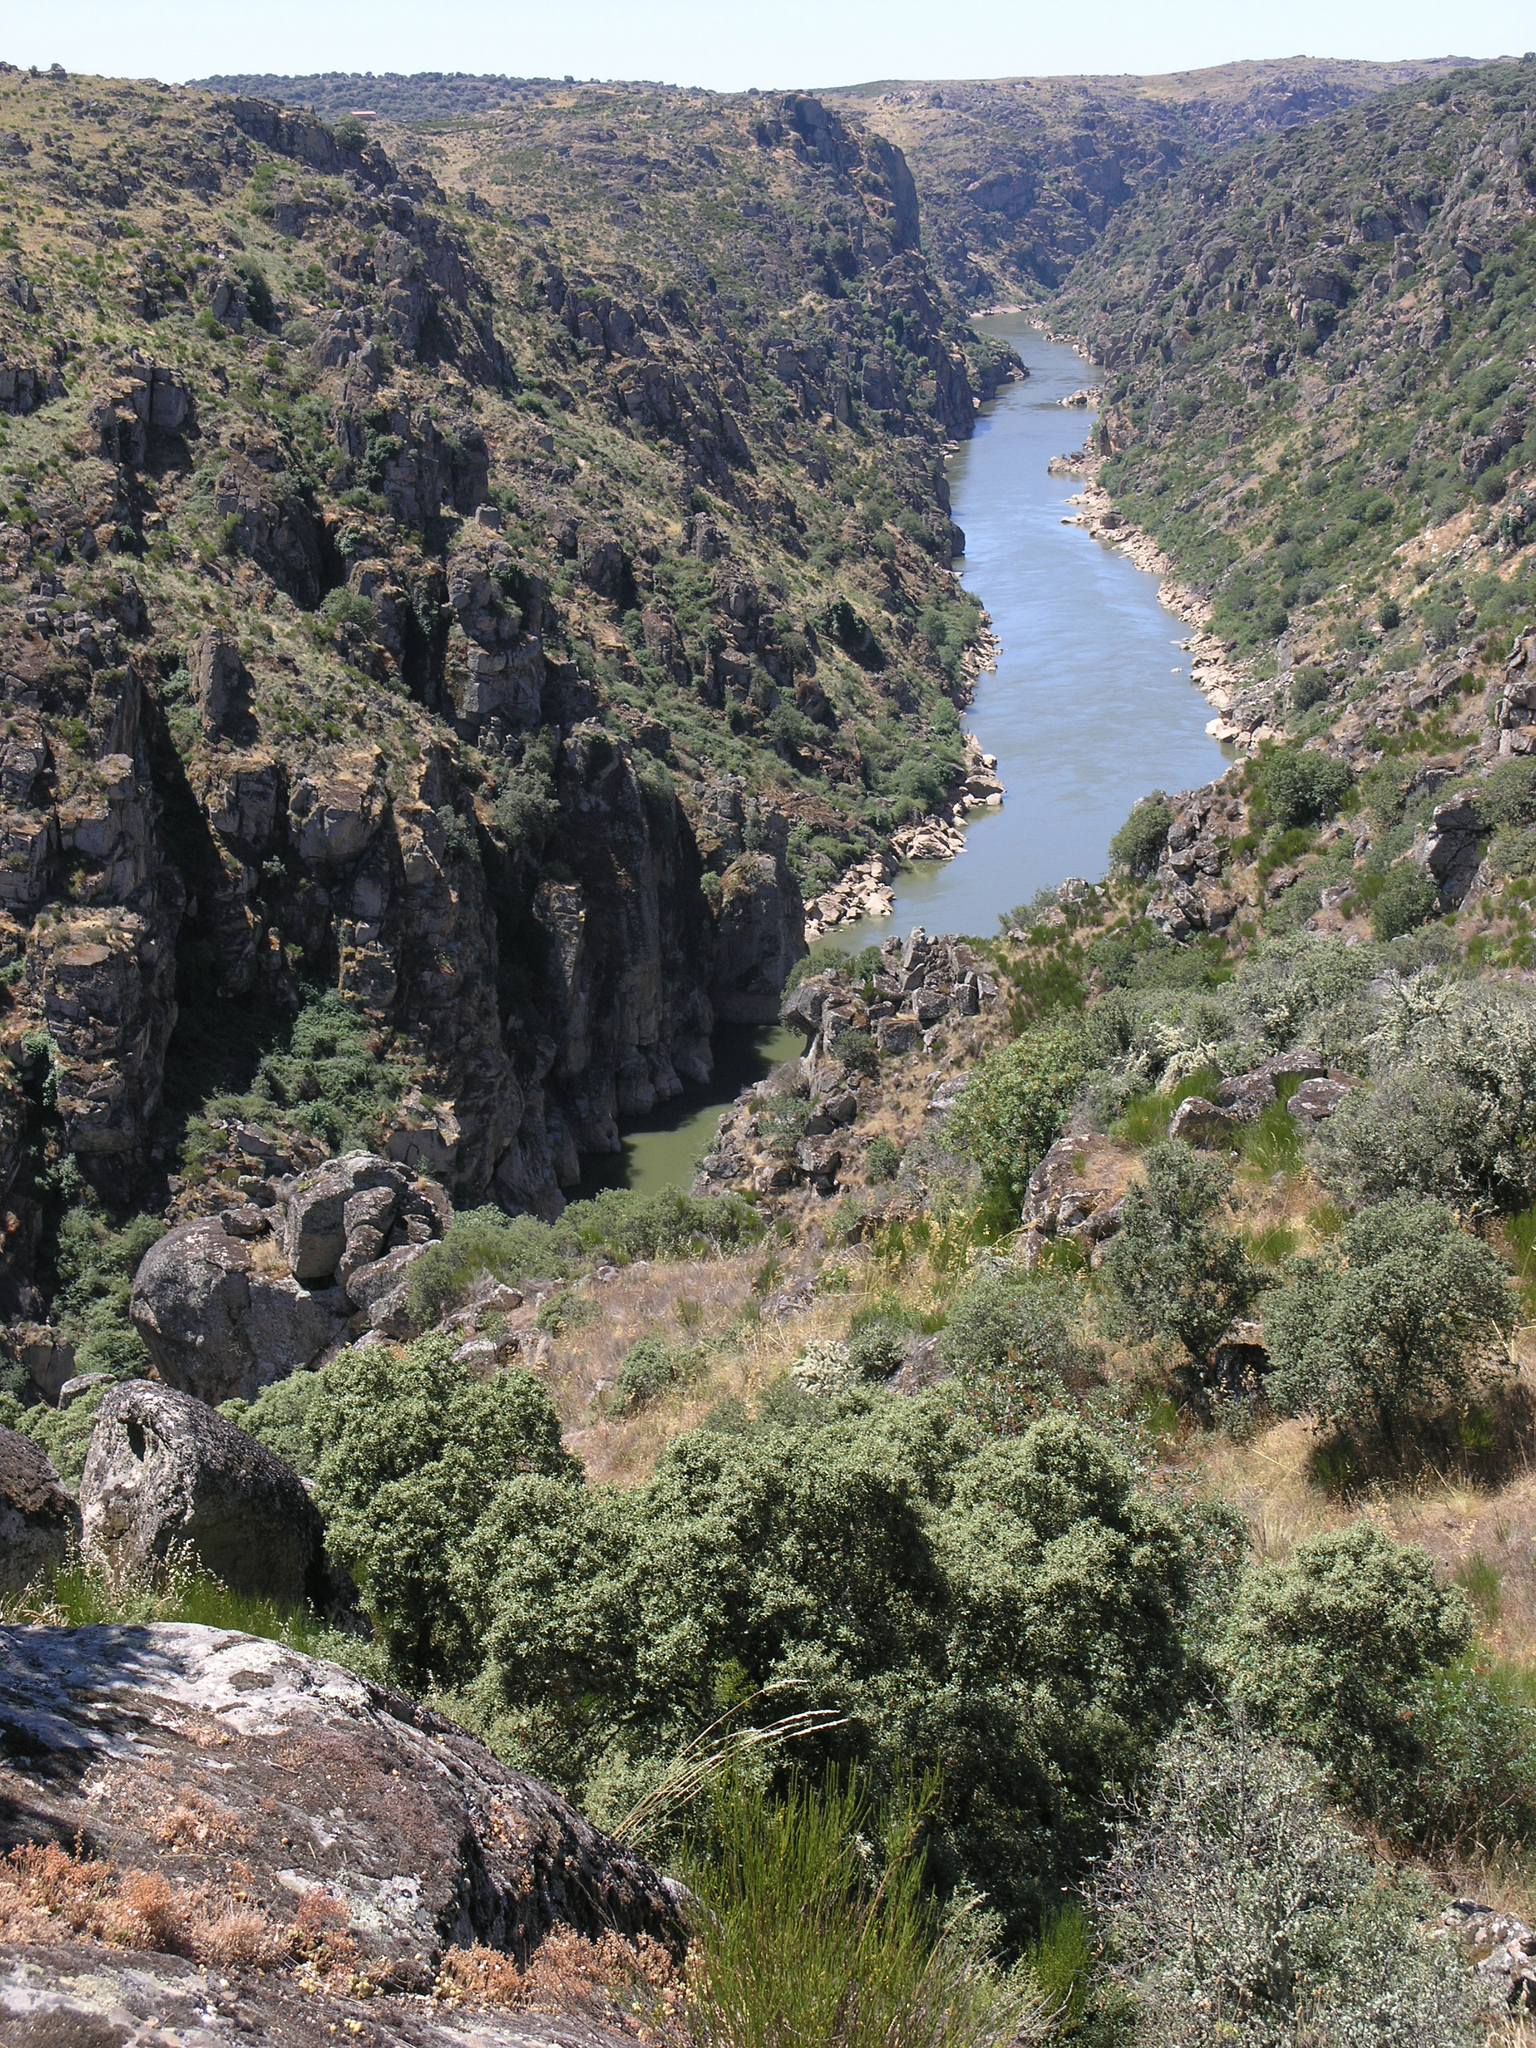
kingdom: Plantae
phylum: Tracheophyta
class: Magnoliopsida
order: Fagales
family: Fagaceae
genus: Quercus
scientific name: Quercus rotundifolia
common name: Holm oak
